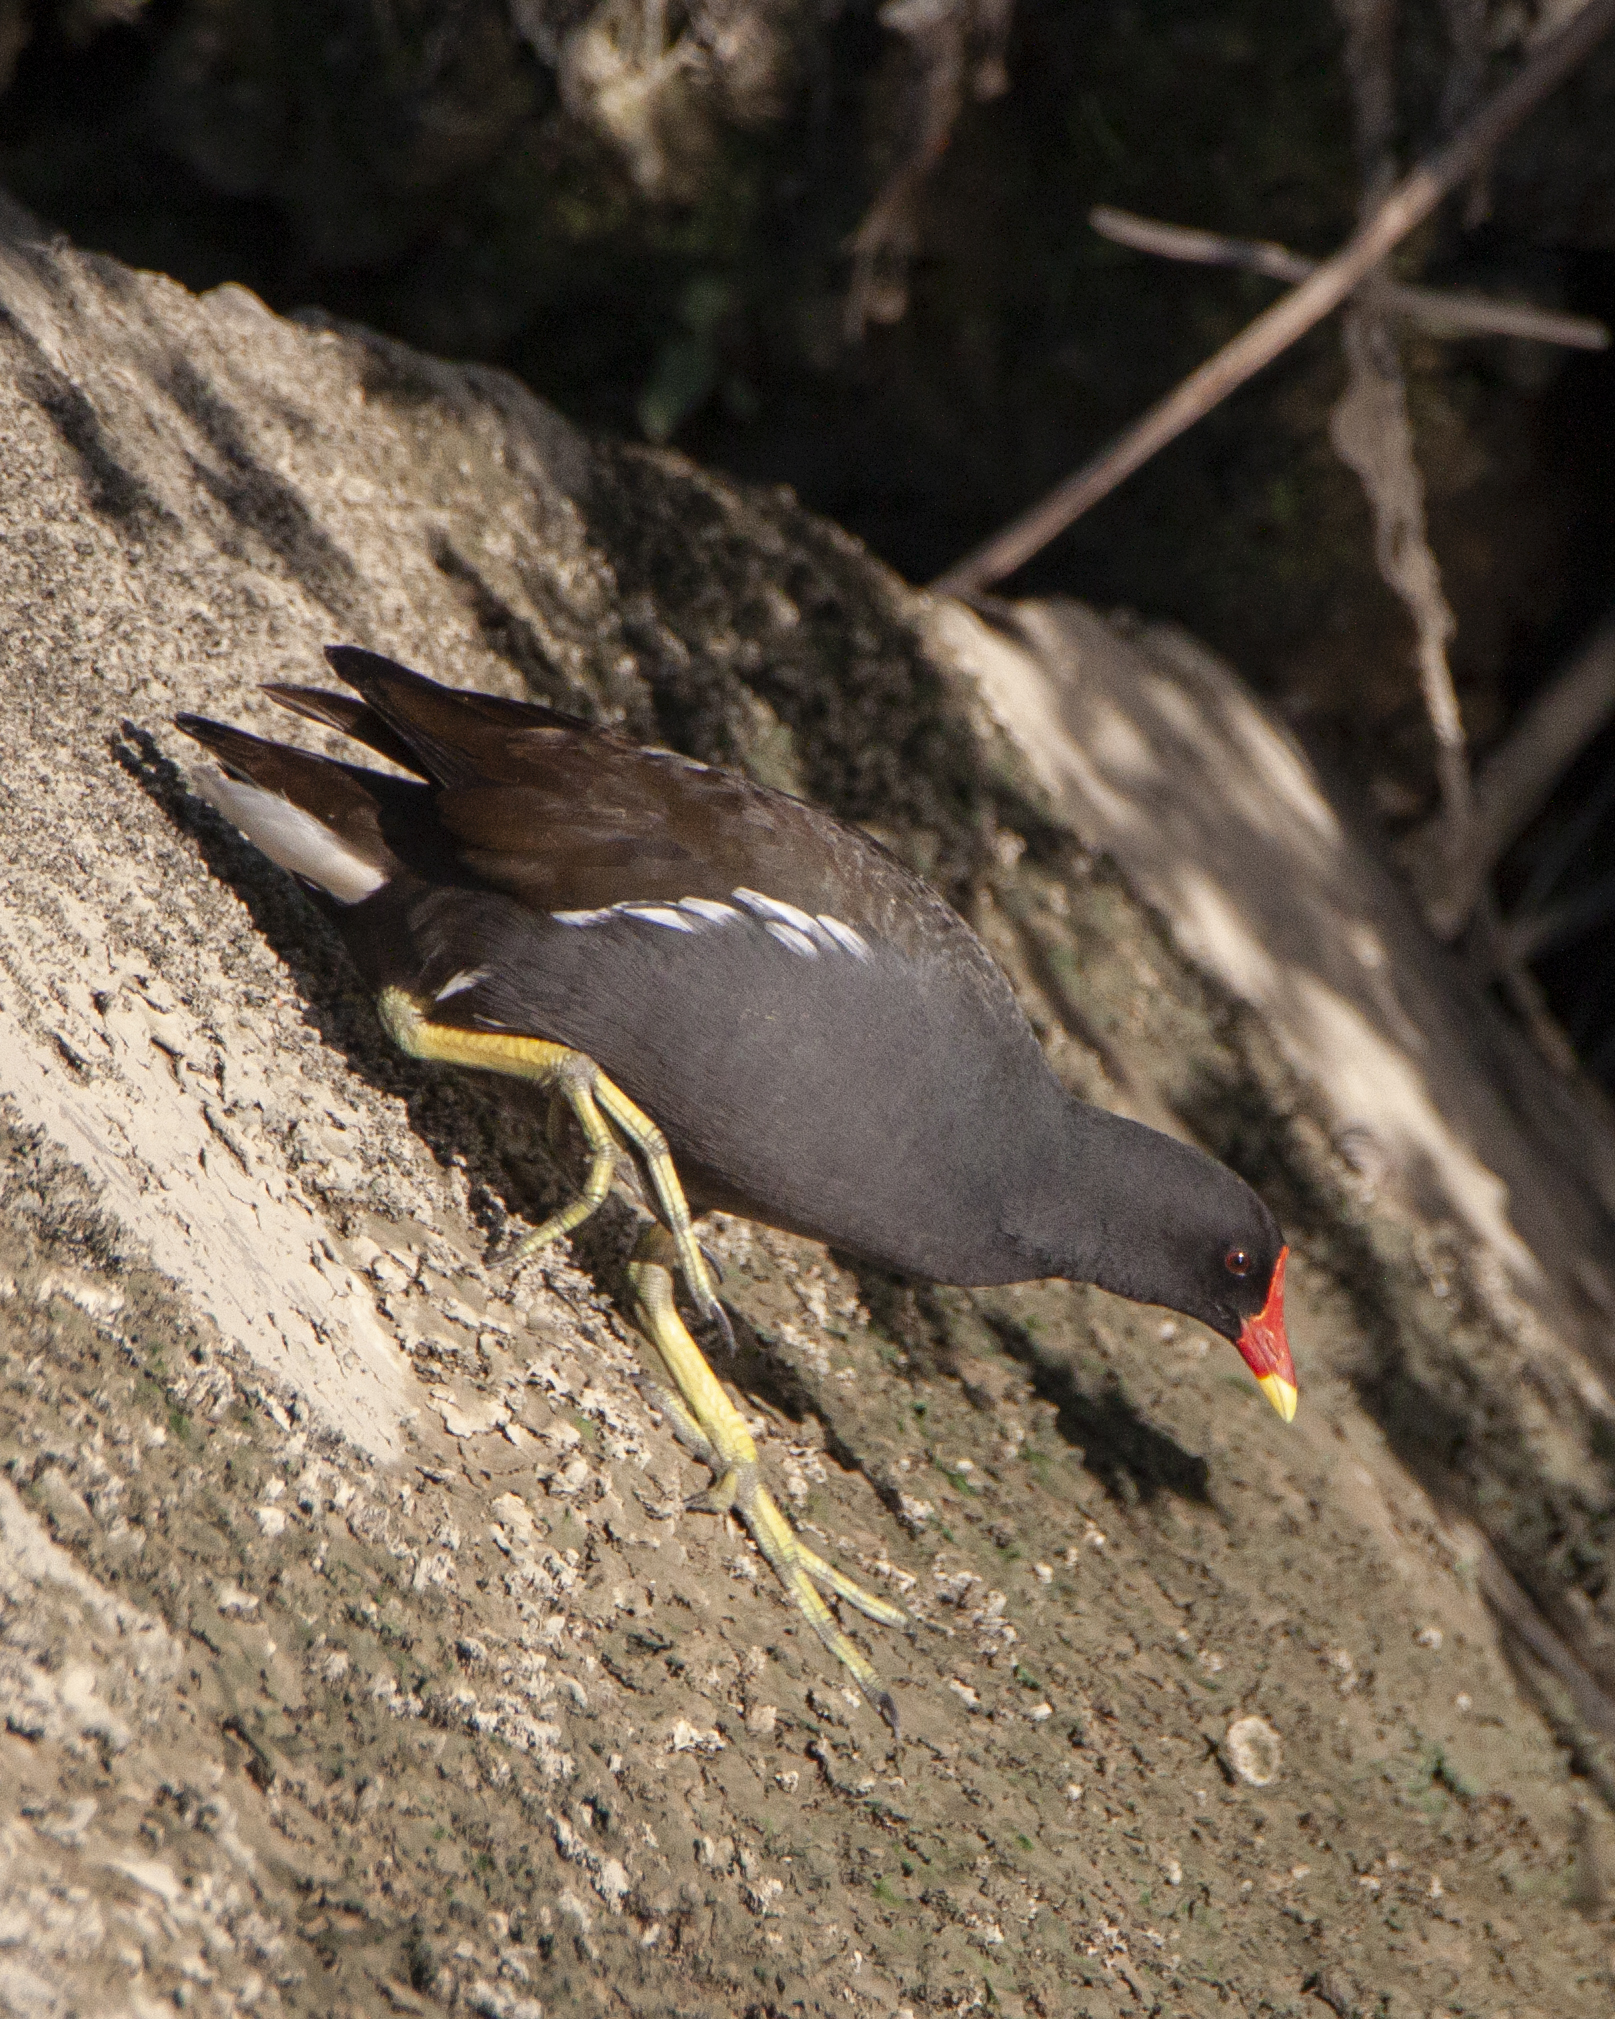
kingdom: Animalia
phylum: Chordata
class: Aves
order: Gruiformes
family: Rallidae
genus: Gallinula
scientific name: Gallinula chloropus
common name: Common moorhen
